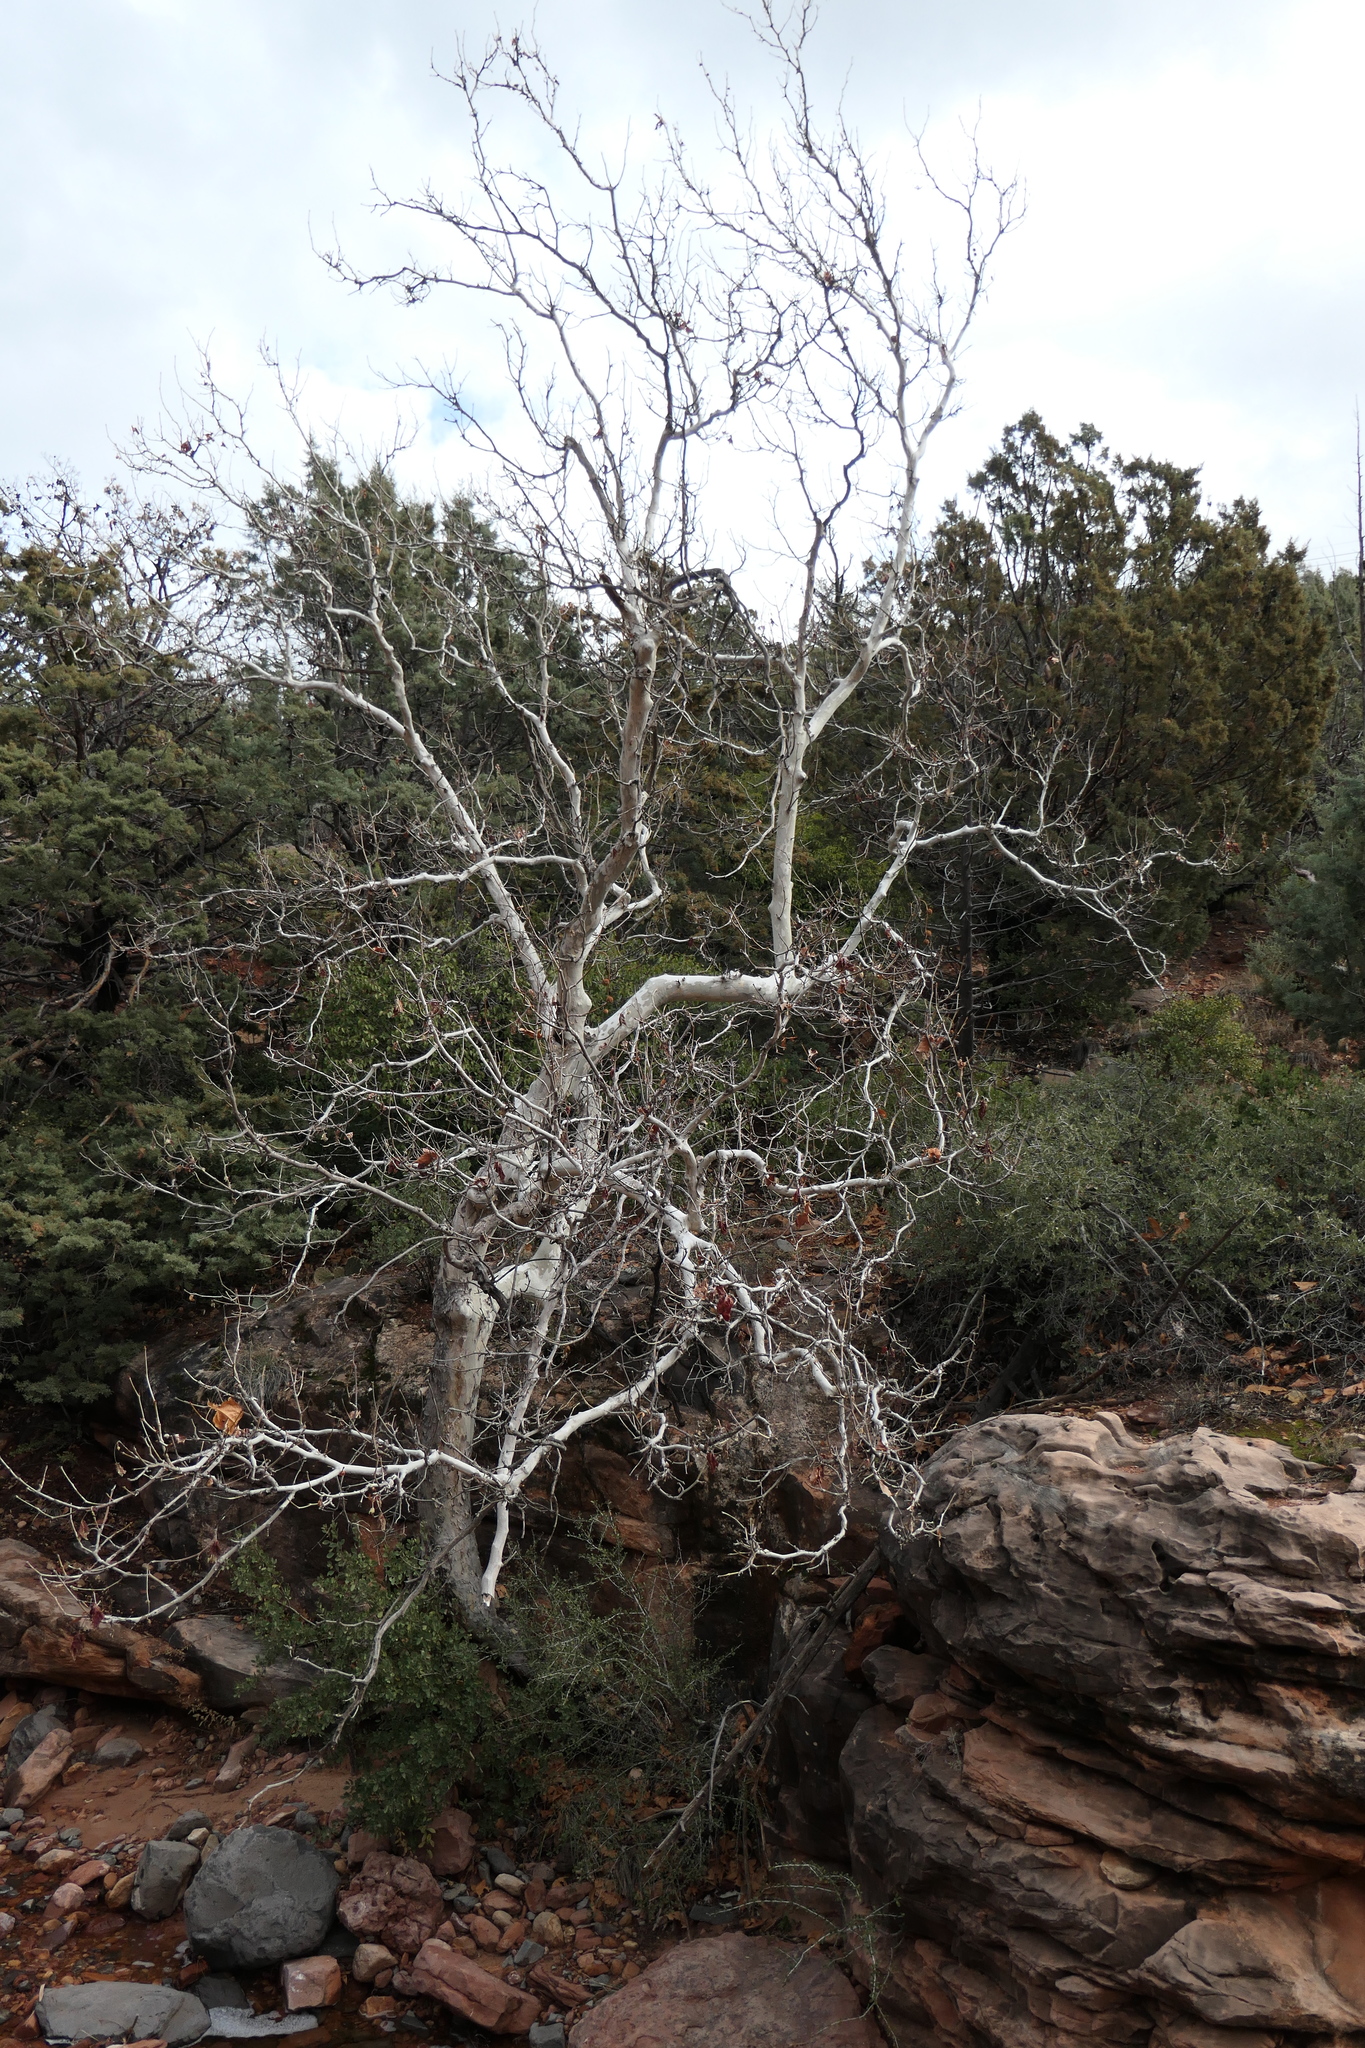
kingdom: Plantae
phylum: Tracheophyta
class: Magnoliopsida
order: Proteales
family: Platanaceae
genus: Platanus
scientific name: Platanus wrightii
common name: Arizona sycamore
